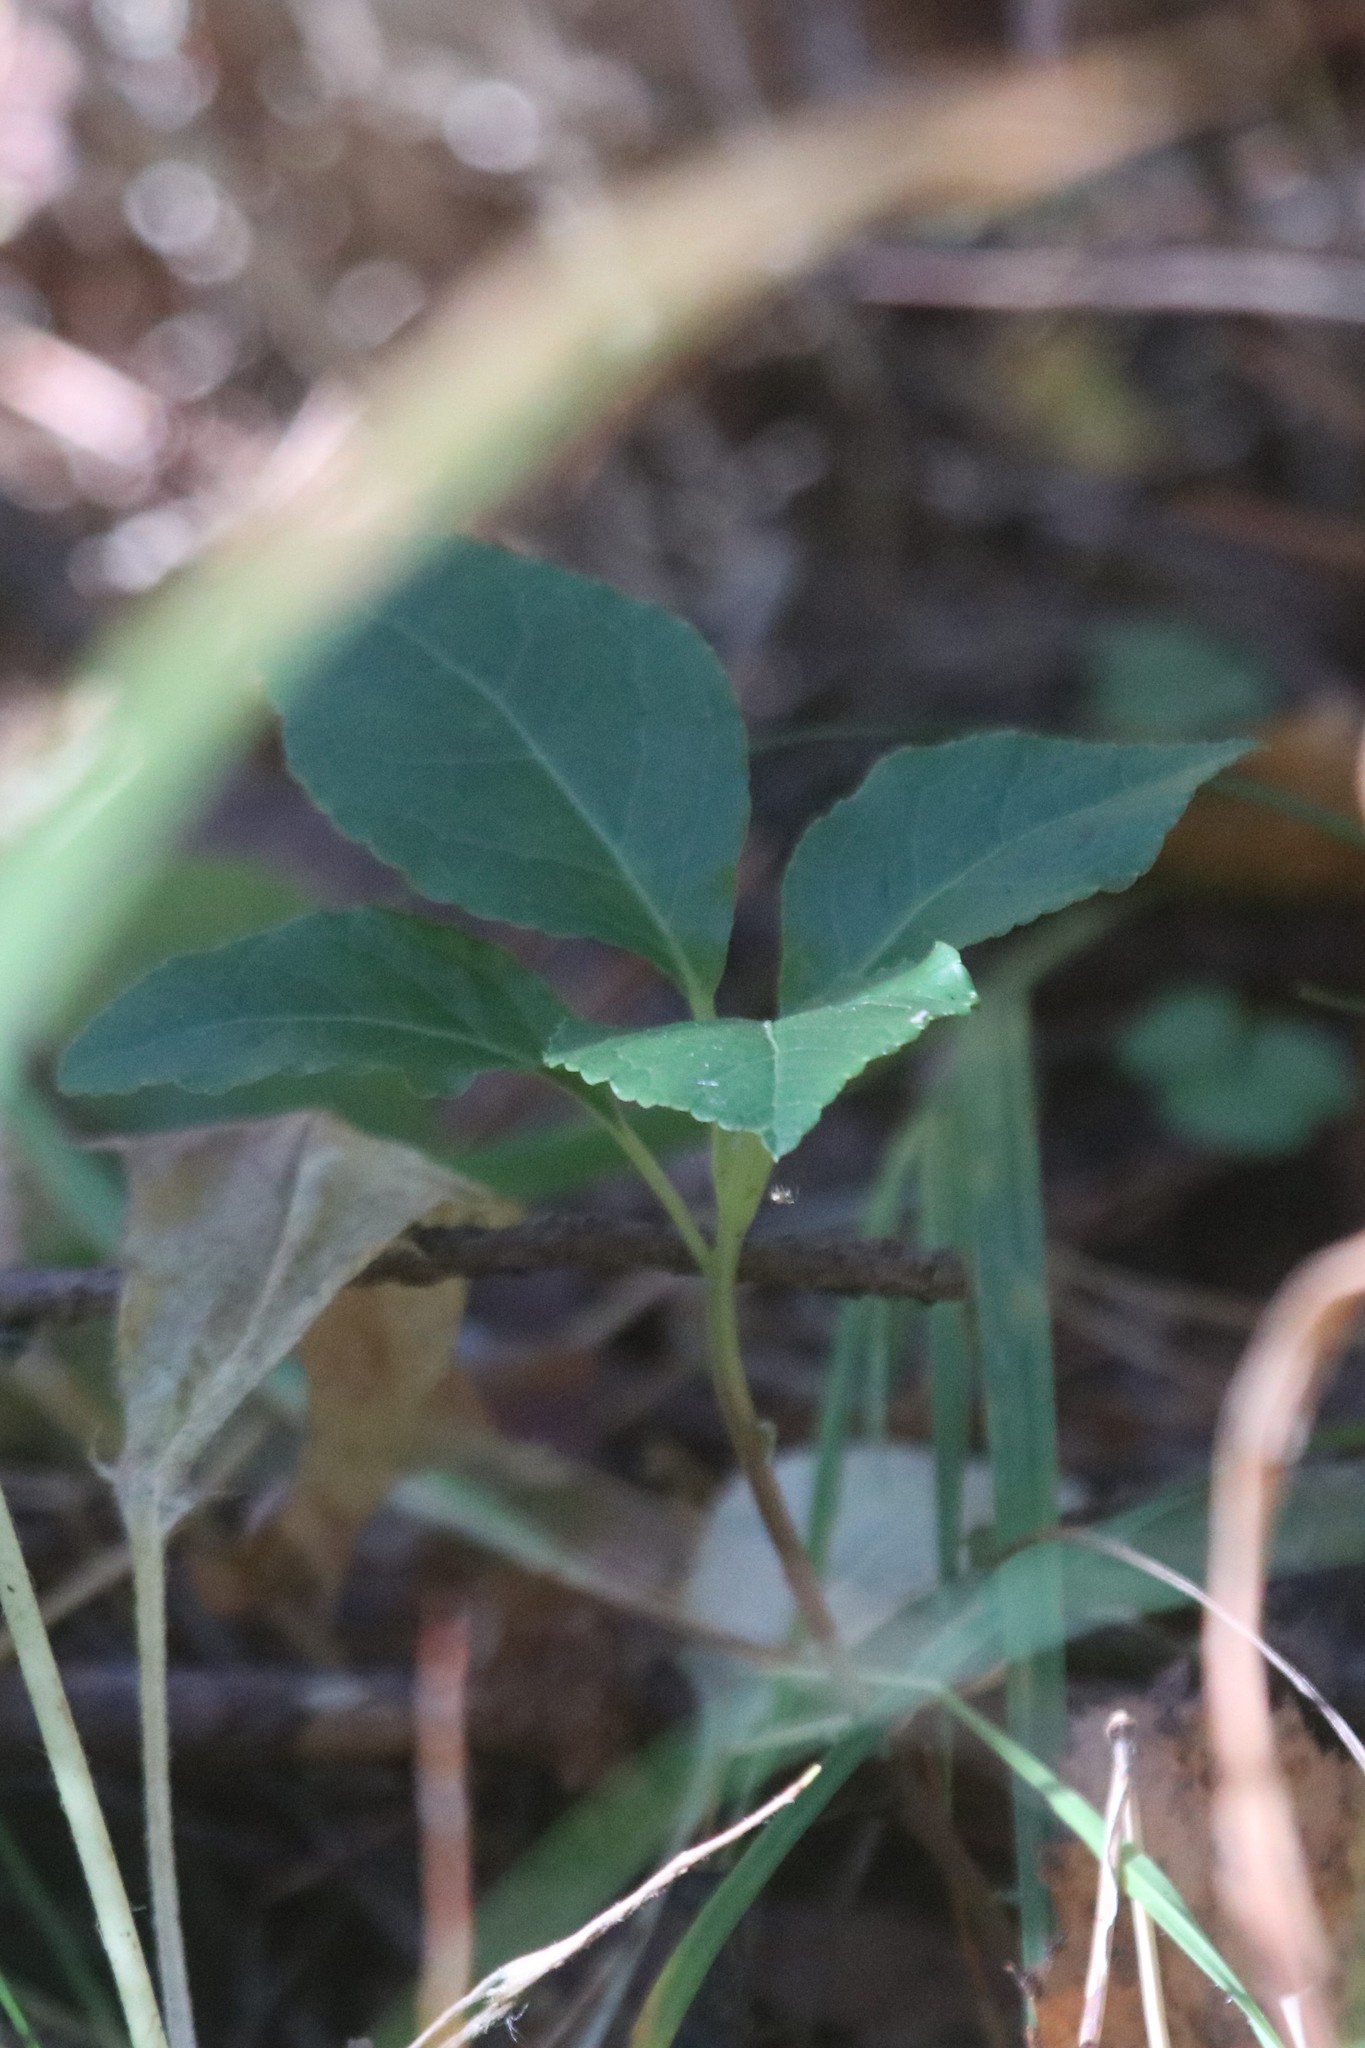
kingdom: Plantae
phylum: Tracheophyta
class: Magnoliopsida
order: Ericales
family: Ericaceae
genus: Orthilia
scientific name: Orthilia secunda
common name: One-sided orthilia
